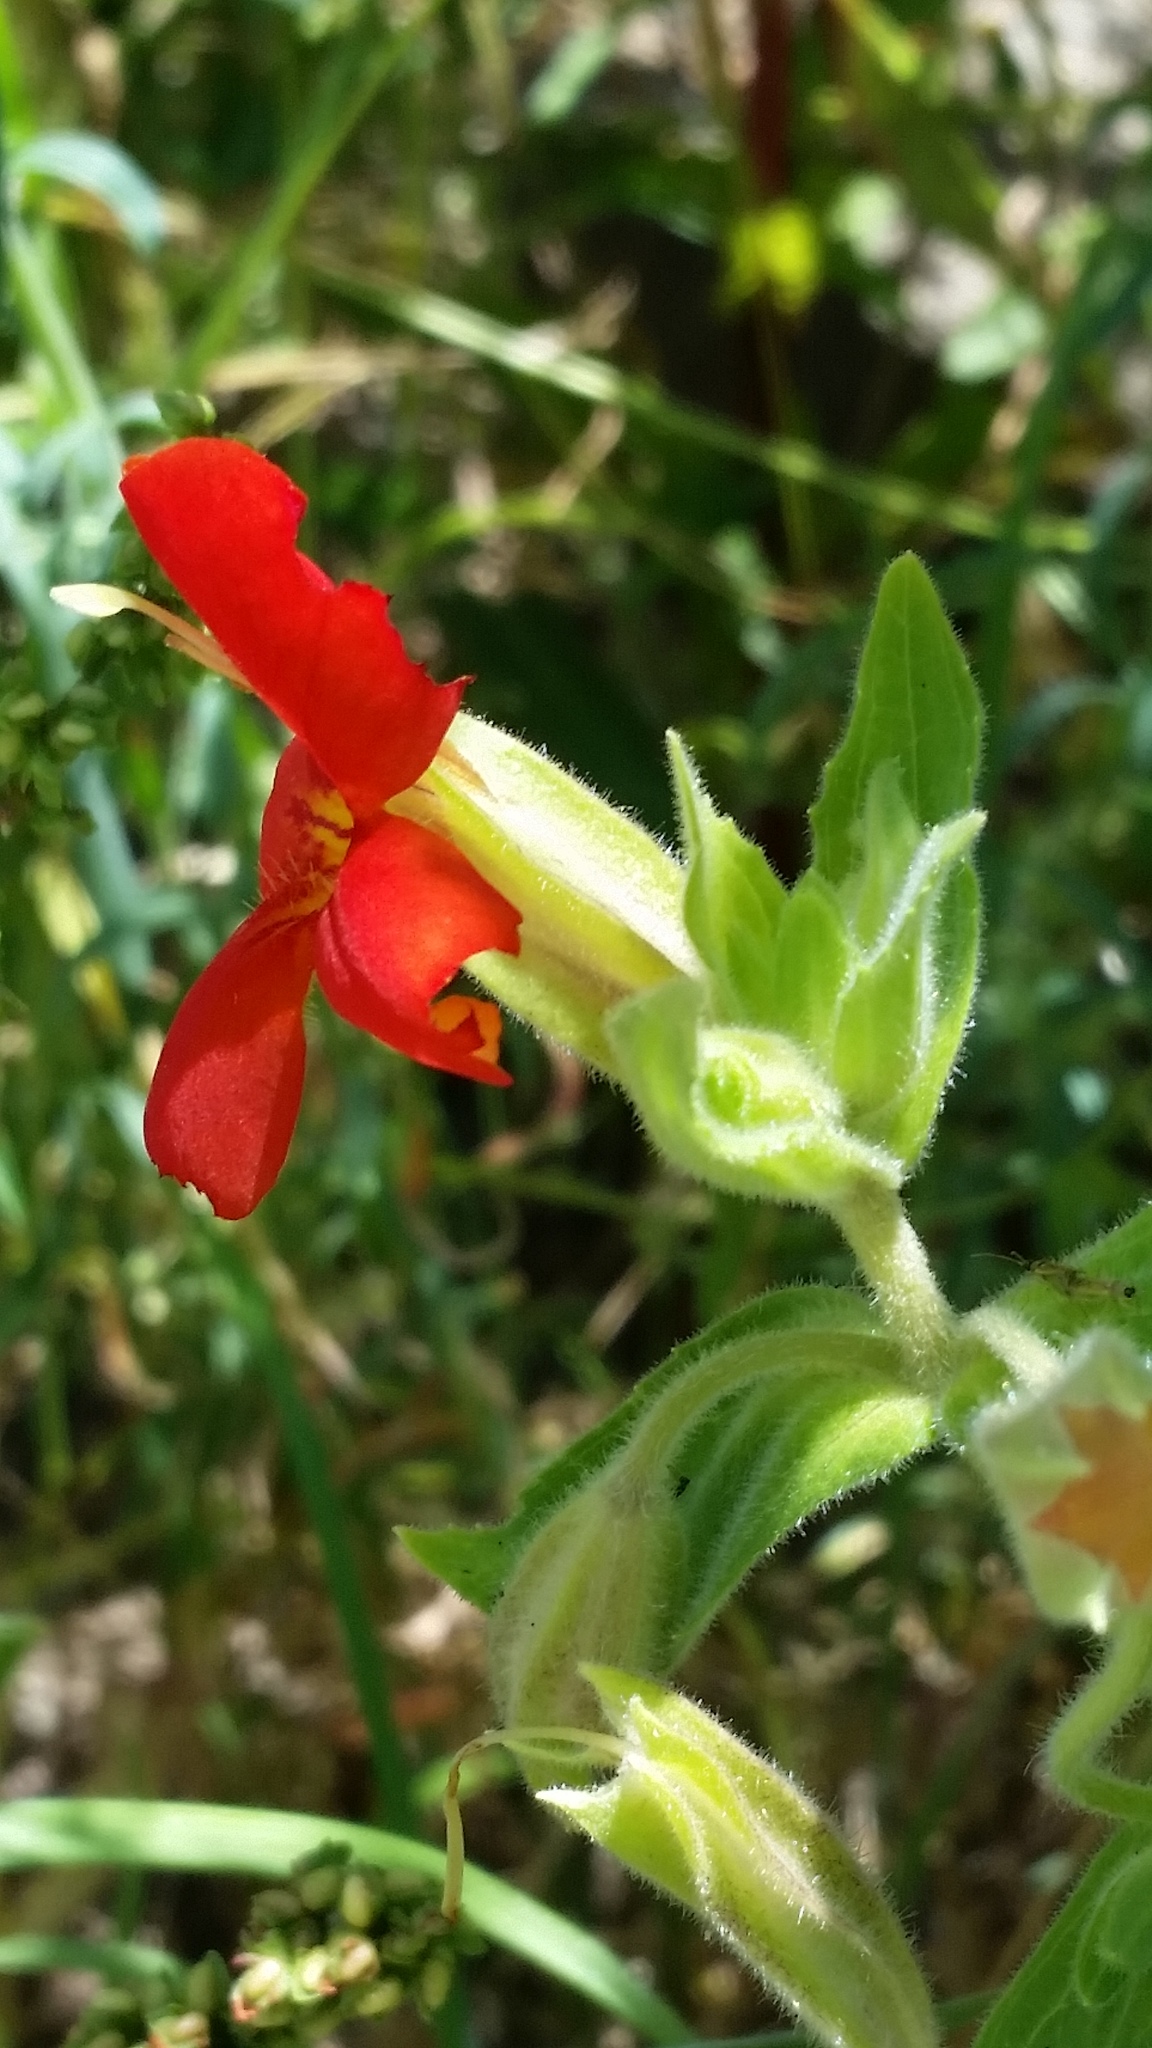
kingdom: Plantae
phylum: Tracheophyta
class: Magnoliopsida
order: Lamiales
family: Phrymaceae
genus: Erythranthe
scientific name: Erythranthe cardinalis
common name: Scarlet monkey-flower
